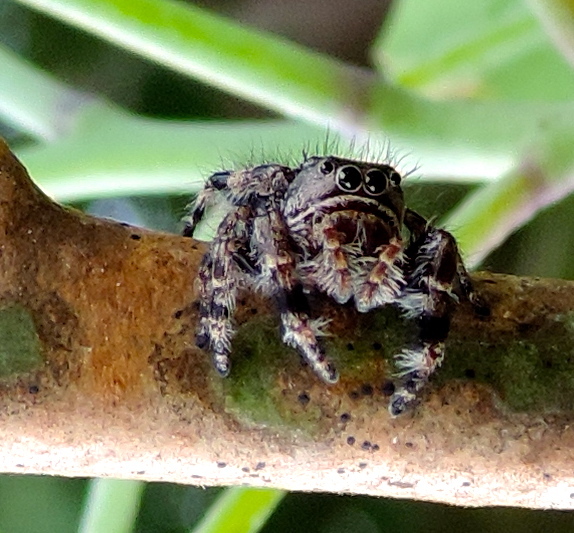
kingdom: Animalia
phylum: Arthropoda
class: Arachnida
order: Araneae
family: Salticidae
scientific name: Salticidae
